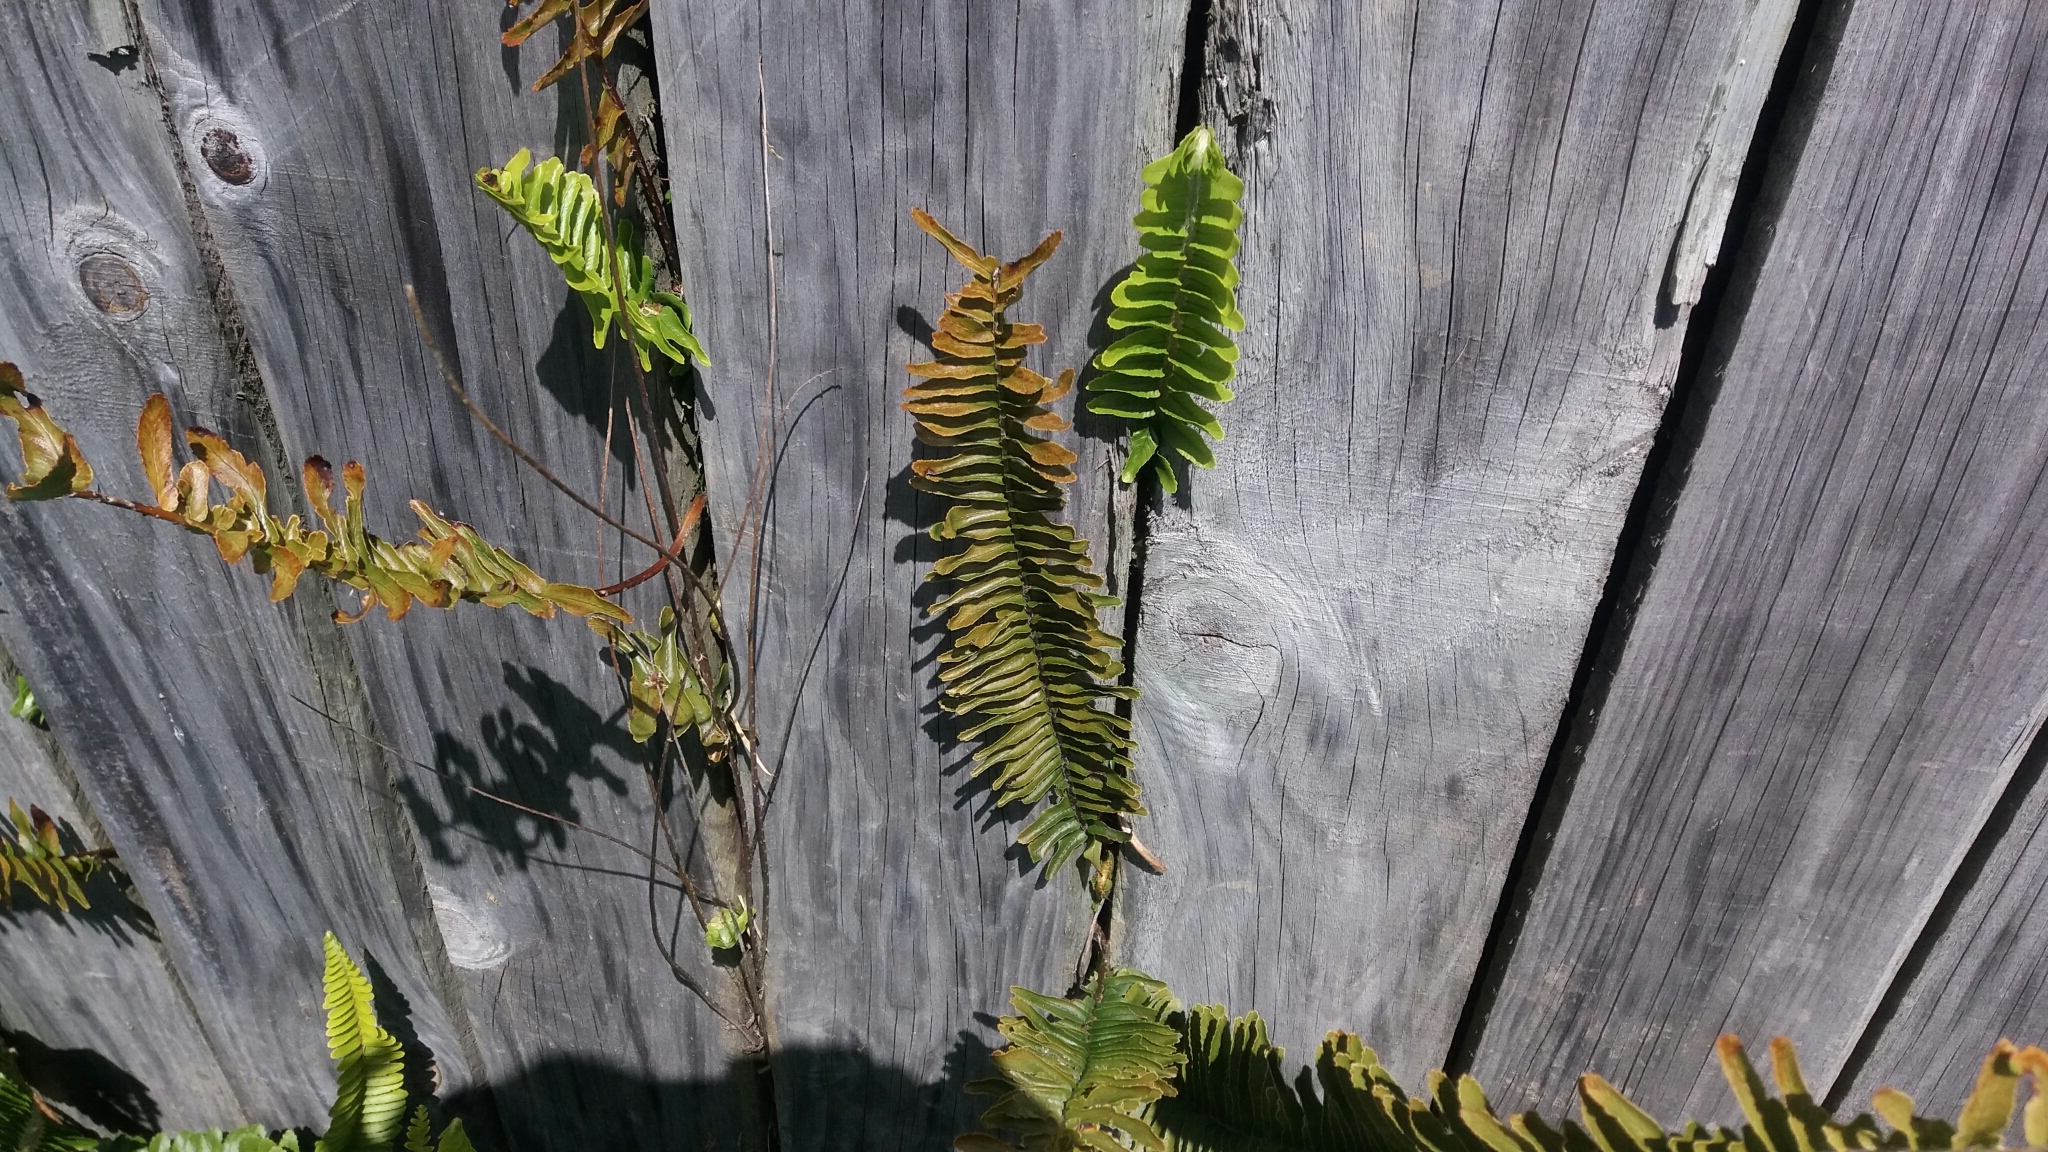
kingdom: Plantae
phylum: Tracheophyta
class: Polypodiopsida
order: Polypodiales
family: Nephrolepidaceae
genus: Nephrolepis
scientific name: Nephrolepis cordifolia
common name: Narrow swordfern
